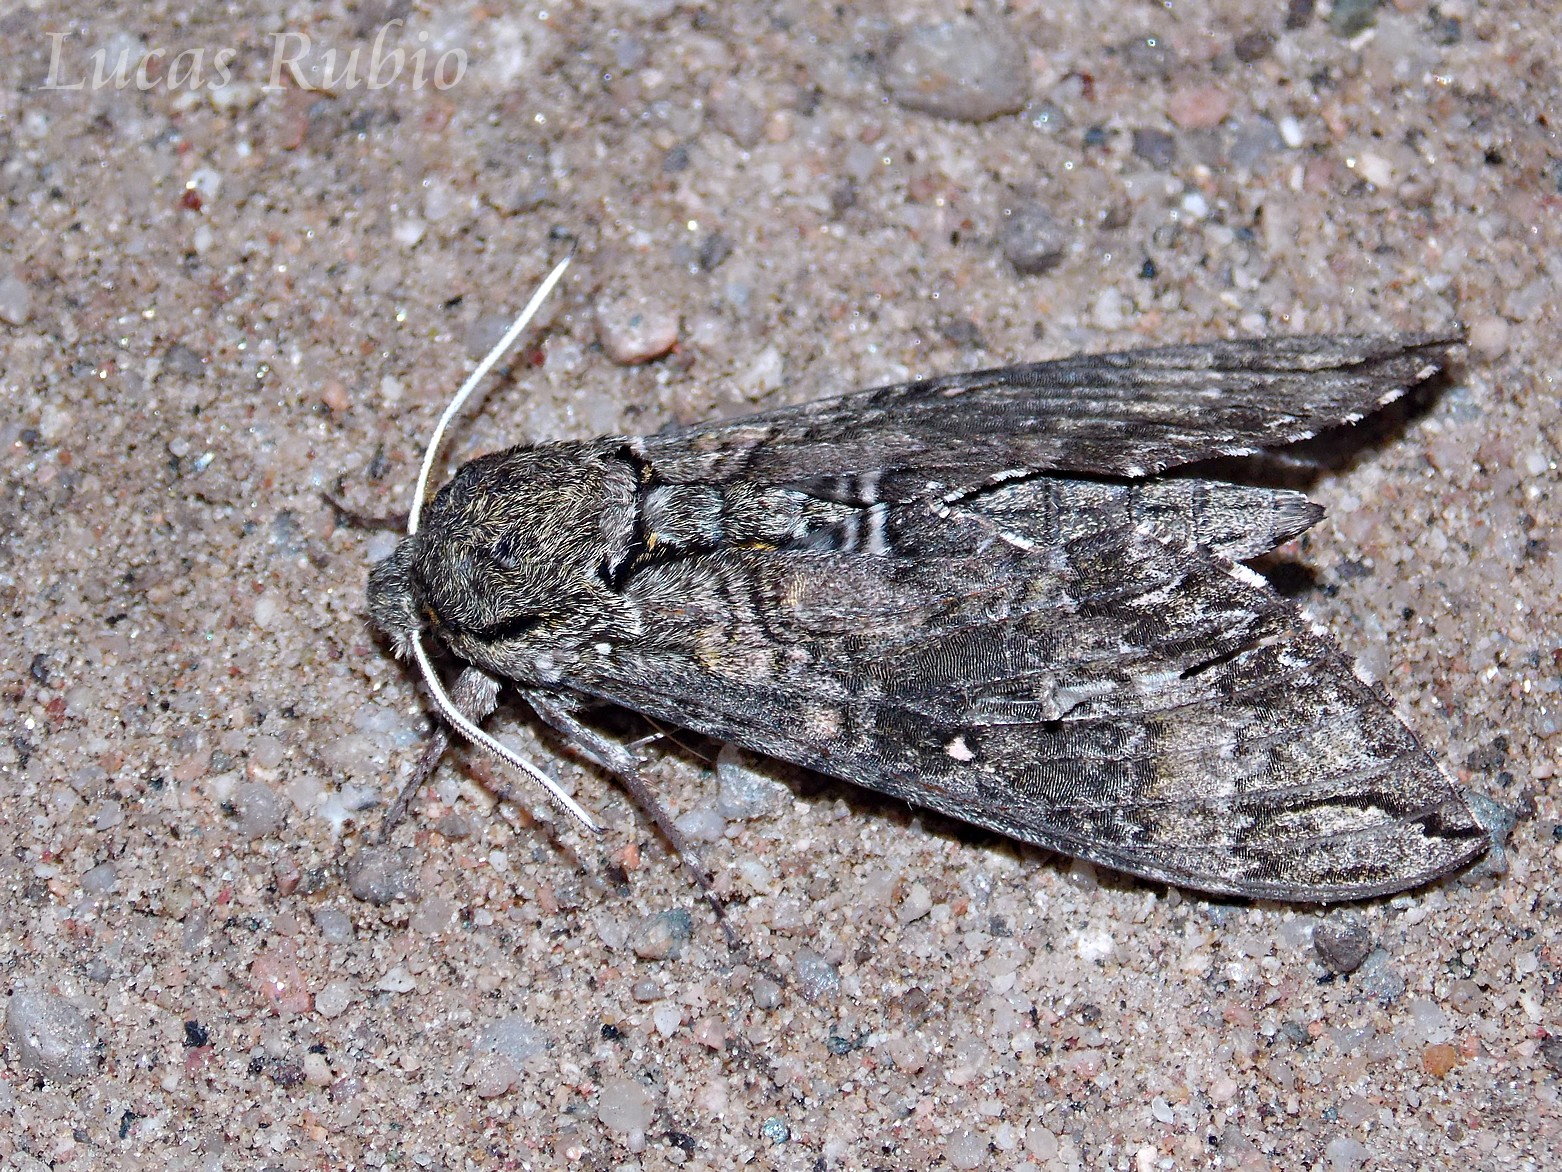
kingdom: Animalia
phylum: Arthropoda
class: Insecta
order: Lepidoptera
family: Sphingidae
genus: Manduca
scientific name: Manduca diffissa
